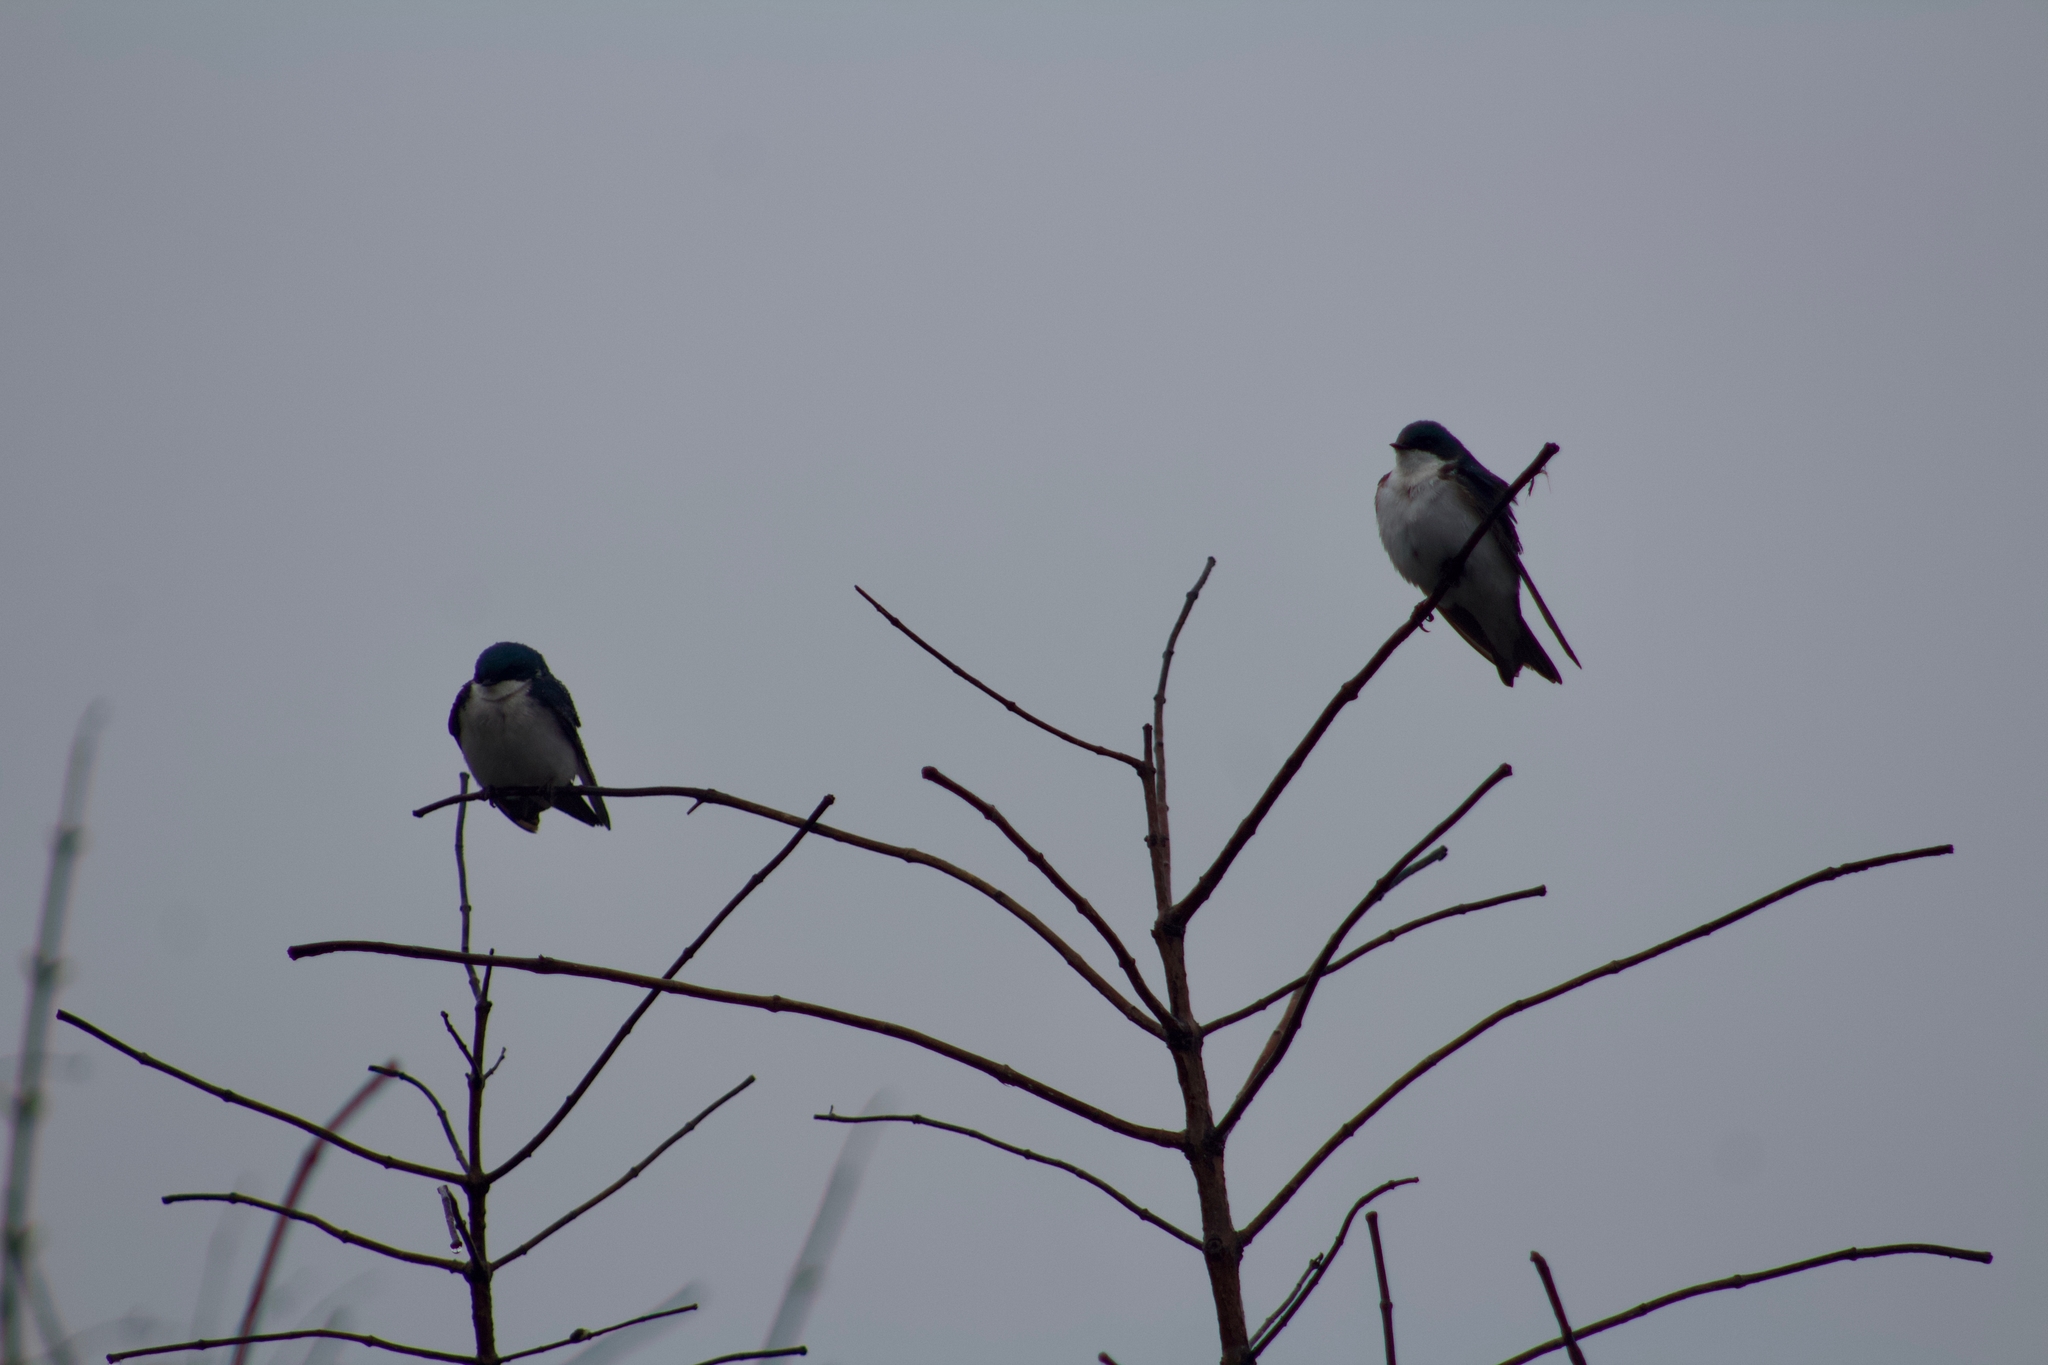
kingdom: Animalia
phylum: Chordata
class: Aves
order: Passeriformes
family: Hirundinidae
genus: Tachycineta
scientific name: Tachycineta bicolor
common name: Tree swallow
